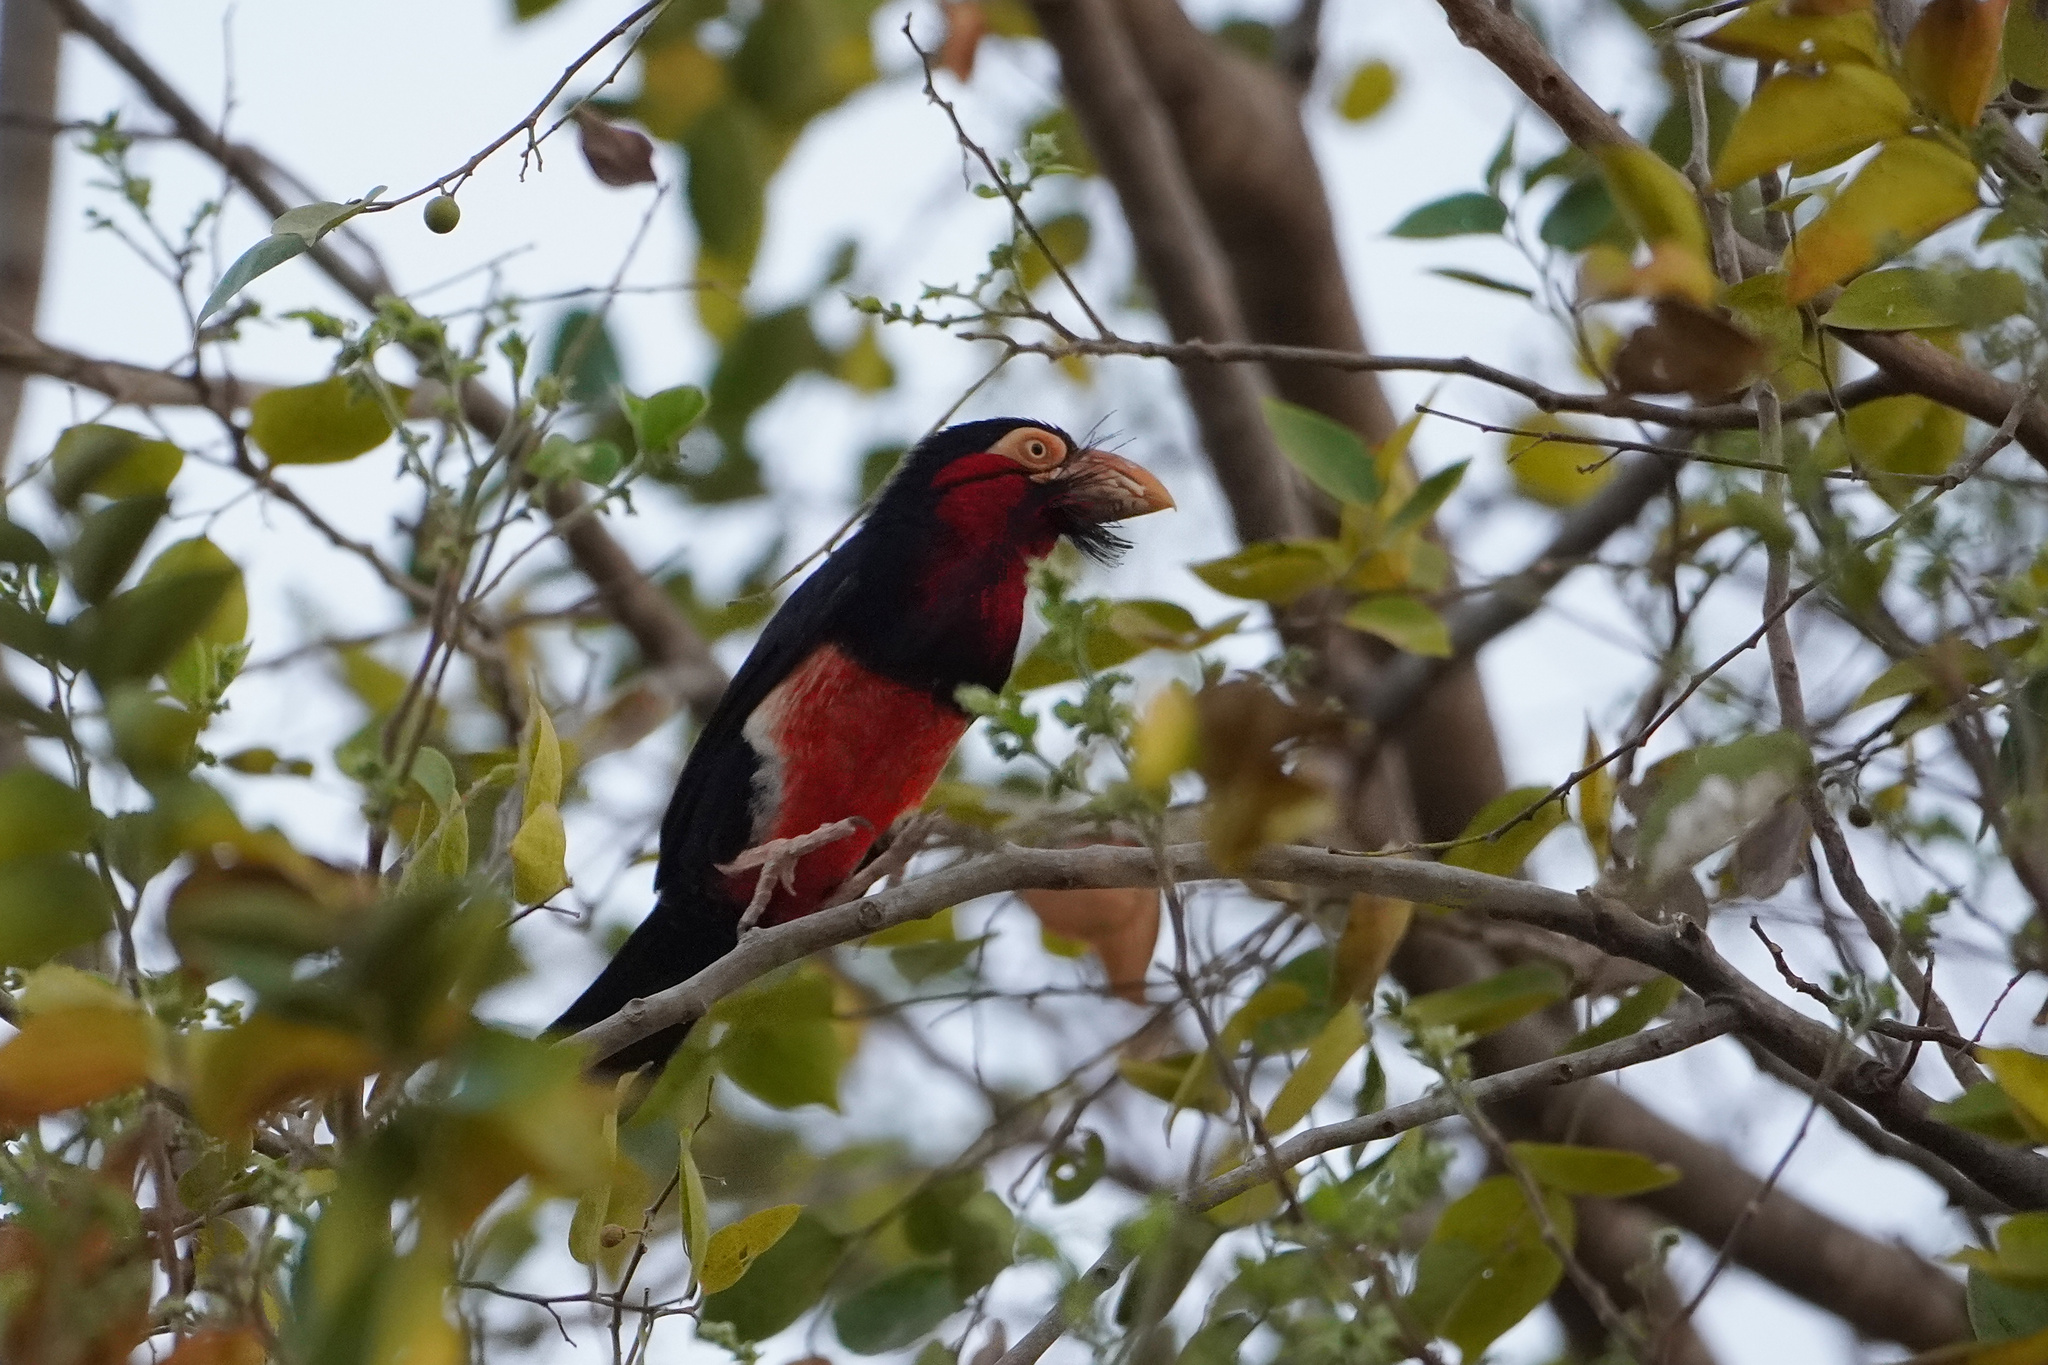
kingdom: Animalia
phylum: Chordata
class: Aves
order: Piciformes
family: Lybiidae
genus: Lybius
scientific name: Lybius dubius
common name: Bearded barbet
